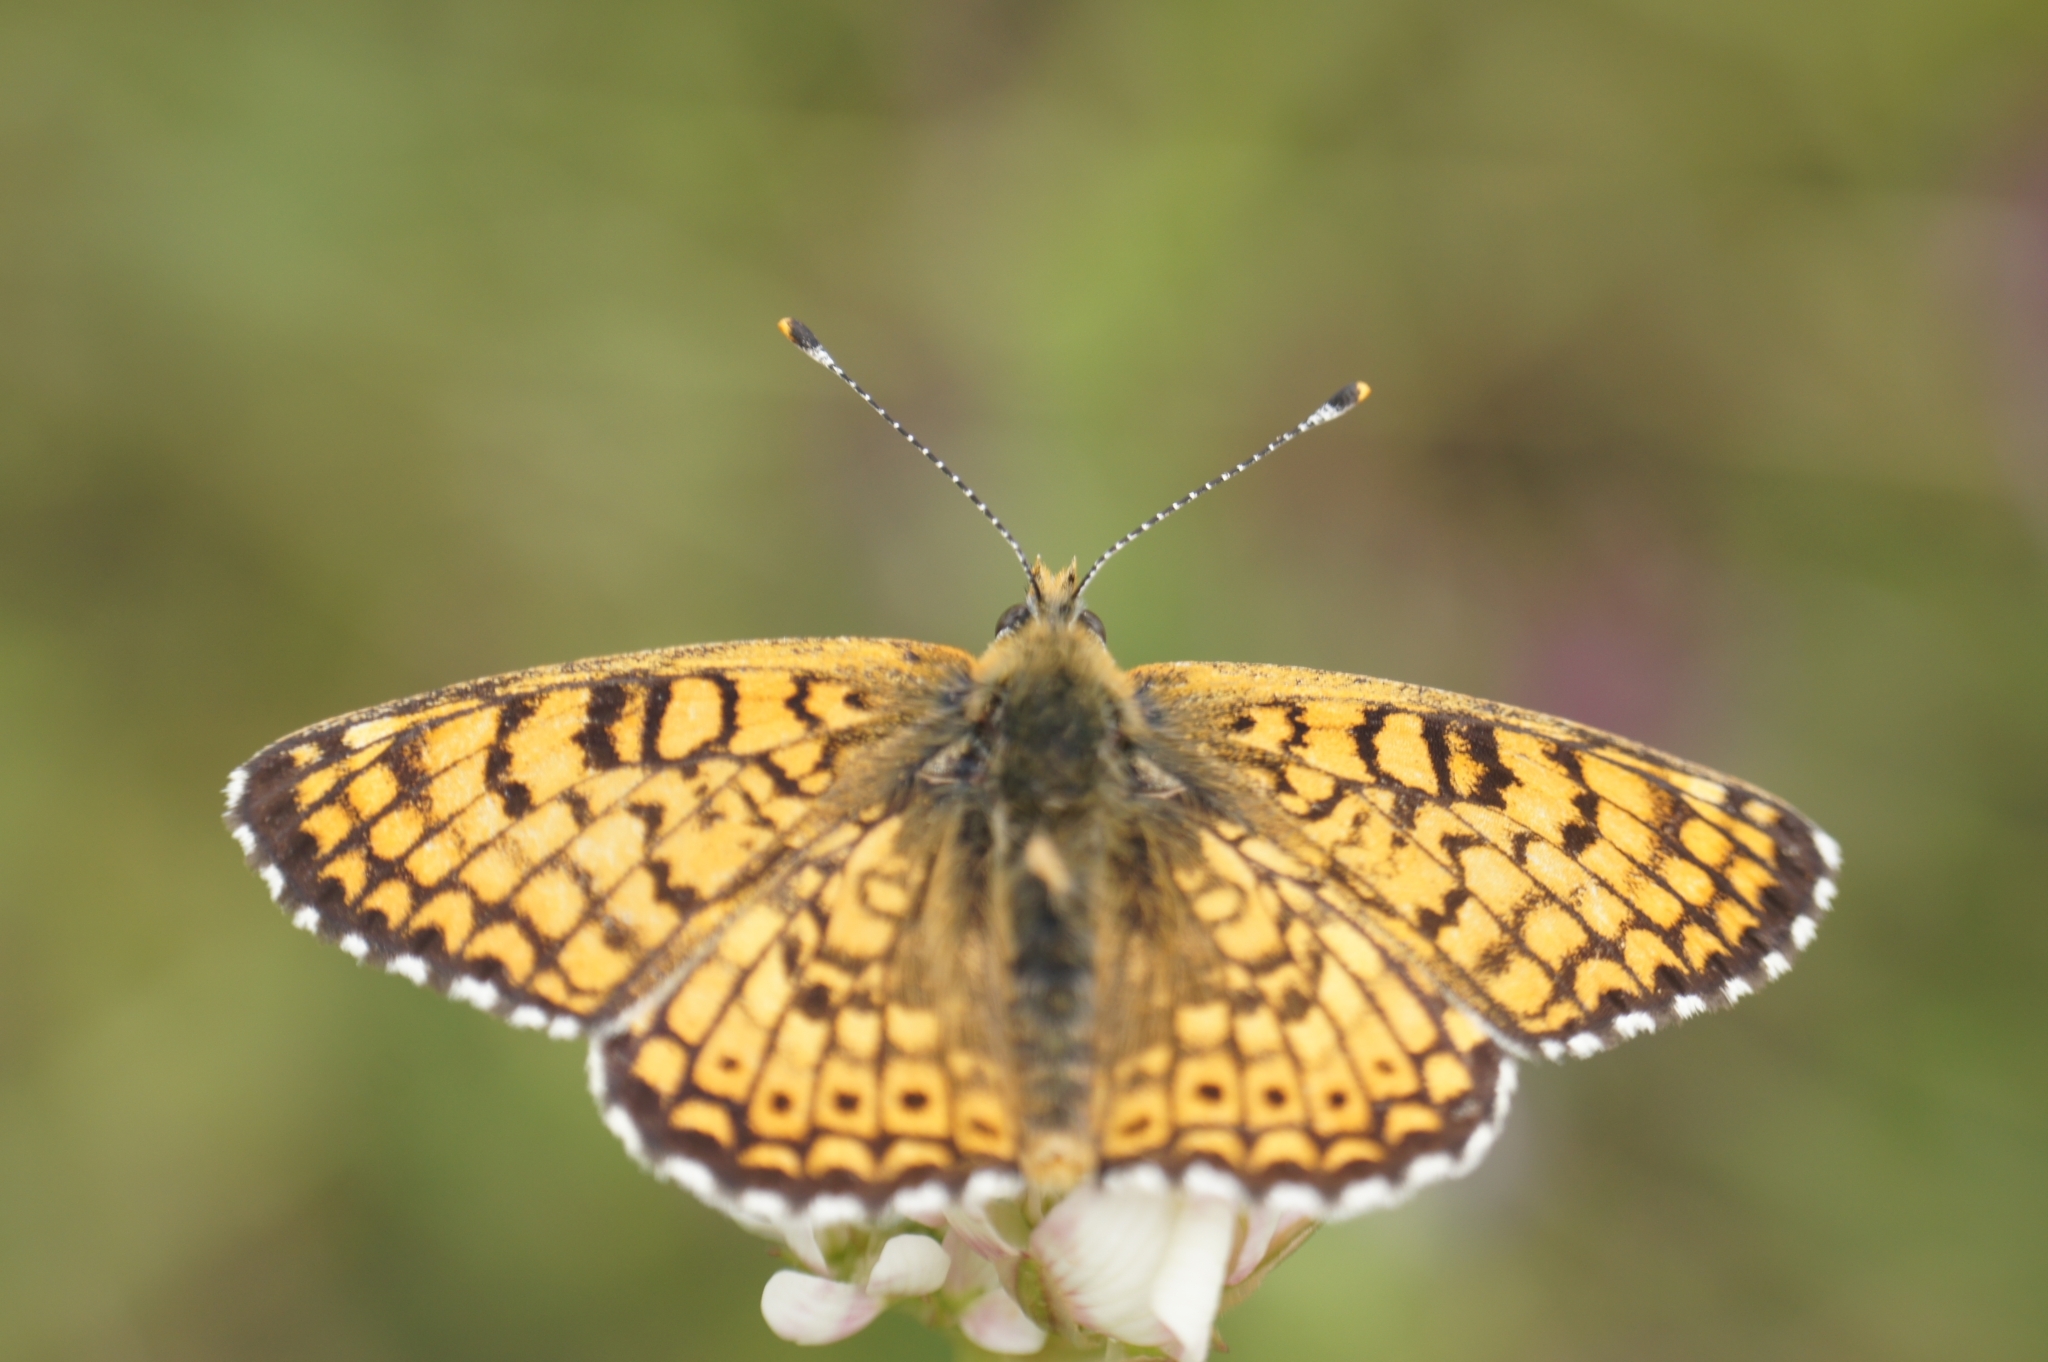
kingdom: Animalia
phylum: Arthropoda
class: Insecta
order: Lepidoptera
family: Nymphalidae
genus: Melitaea
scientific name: Melitaea cinxia
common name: Glanville fritillary
